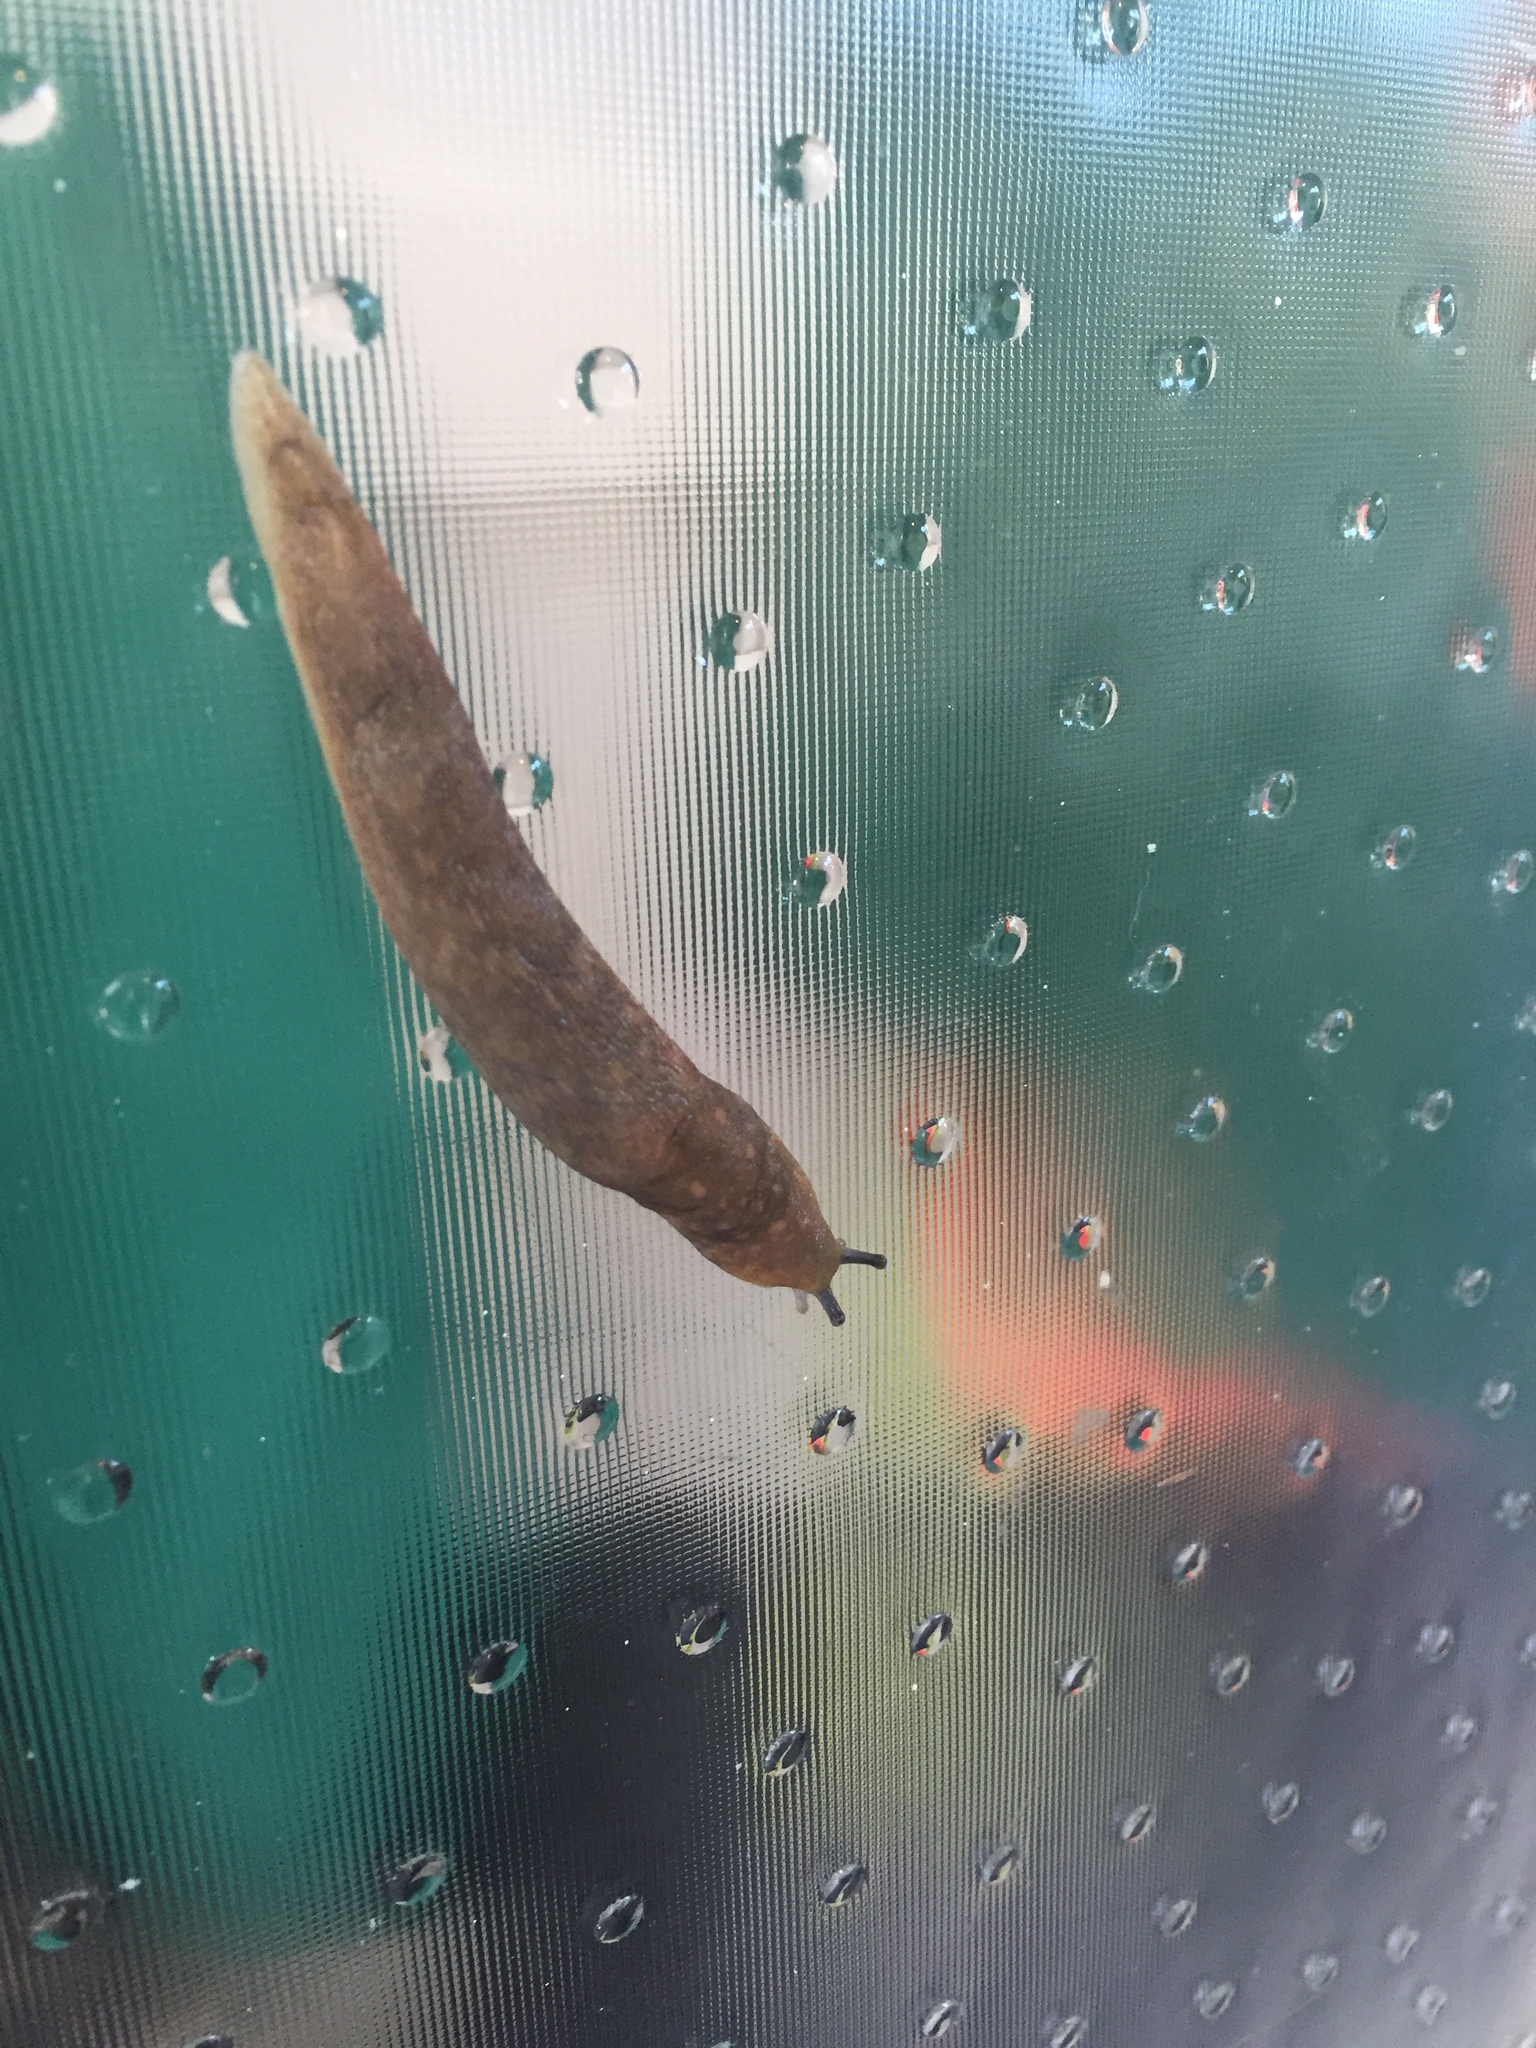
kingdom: Animalia
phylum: Mollusca
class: Gastropoda
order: Stylommatophora
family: Agriolimacidae
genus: Deroceras
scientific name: Deroceras reticulatum
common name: Gray field slug
